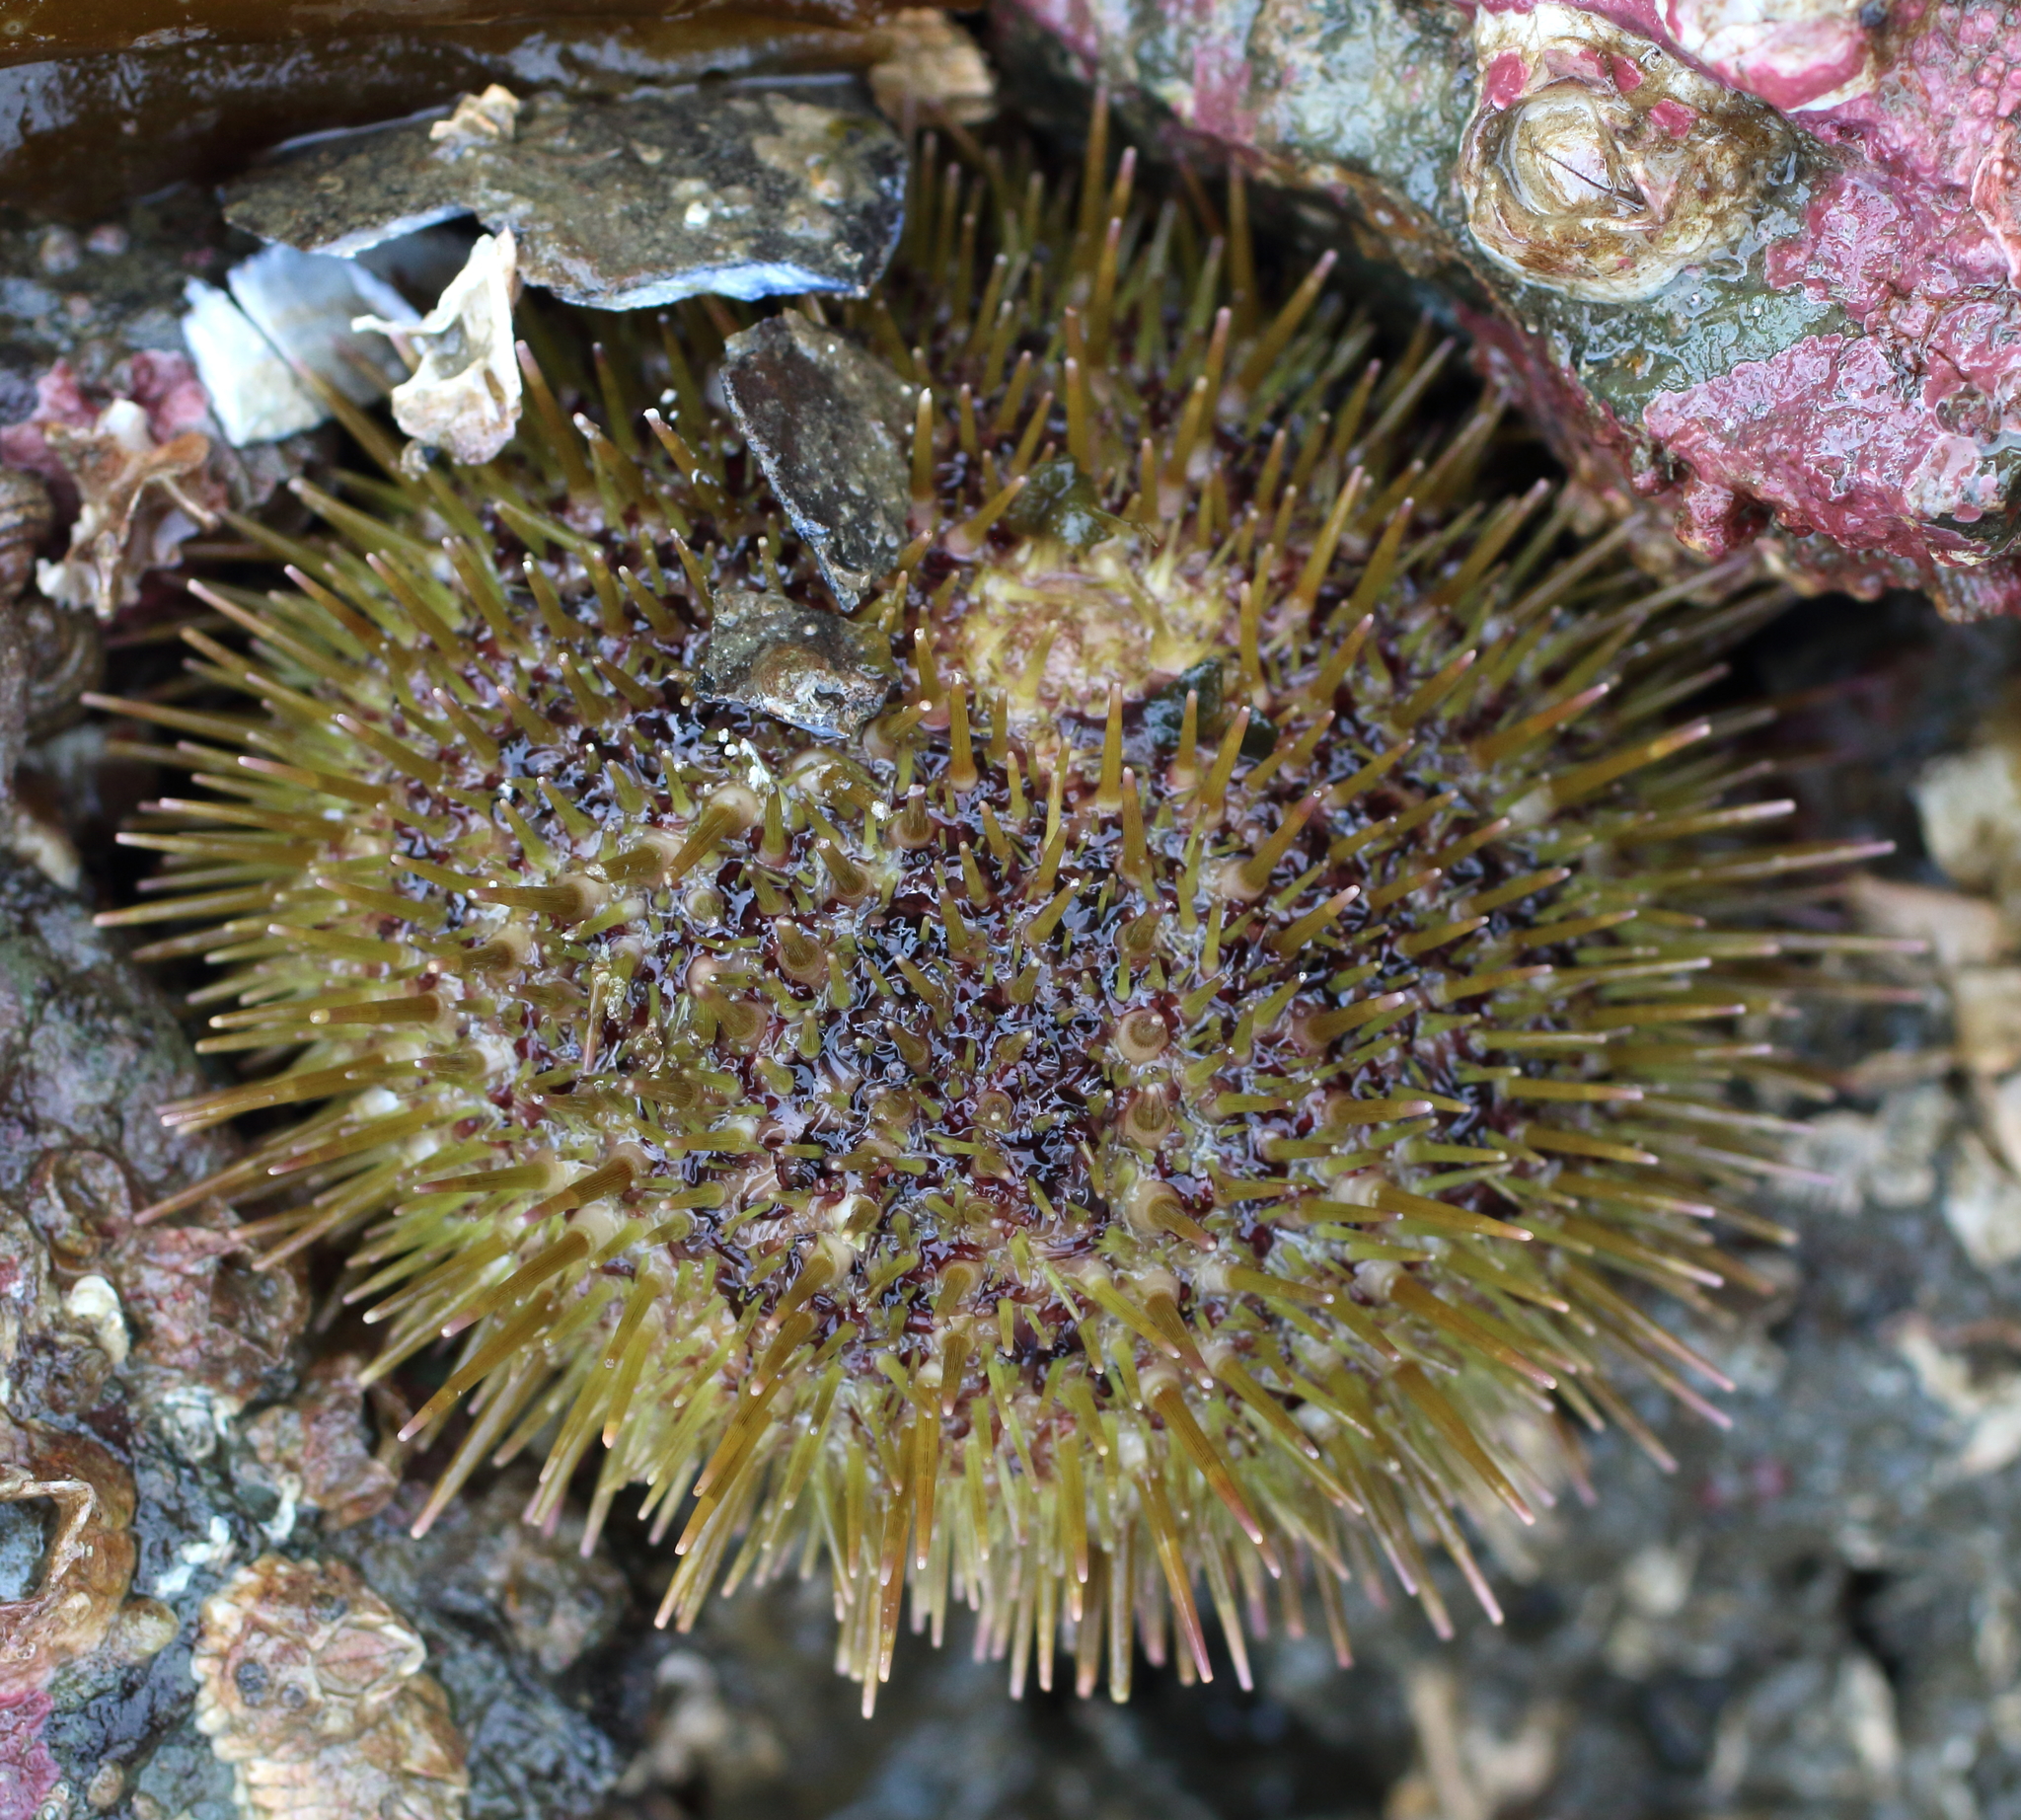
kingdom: Animalia
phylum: Echinodermata
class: Echinoidea
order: Camarodonta
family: Strongylocentrotidae
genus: Strongylocentrotus
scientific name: Strongylocentrotus droebachiensis
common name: Northern sea urchin
